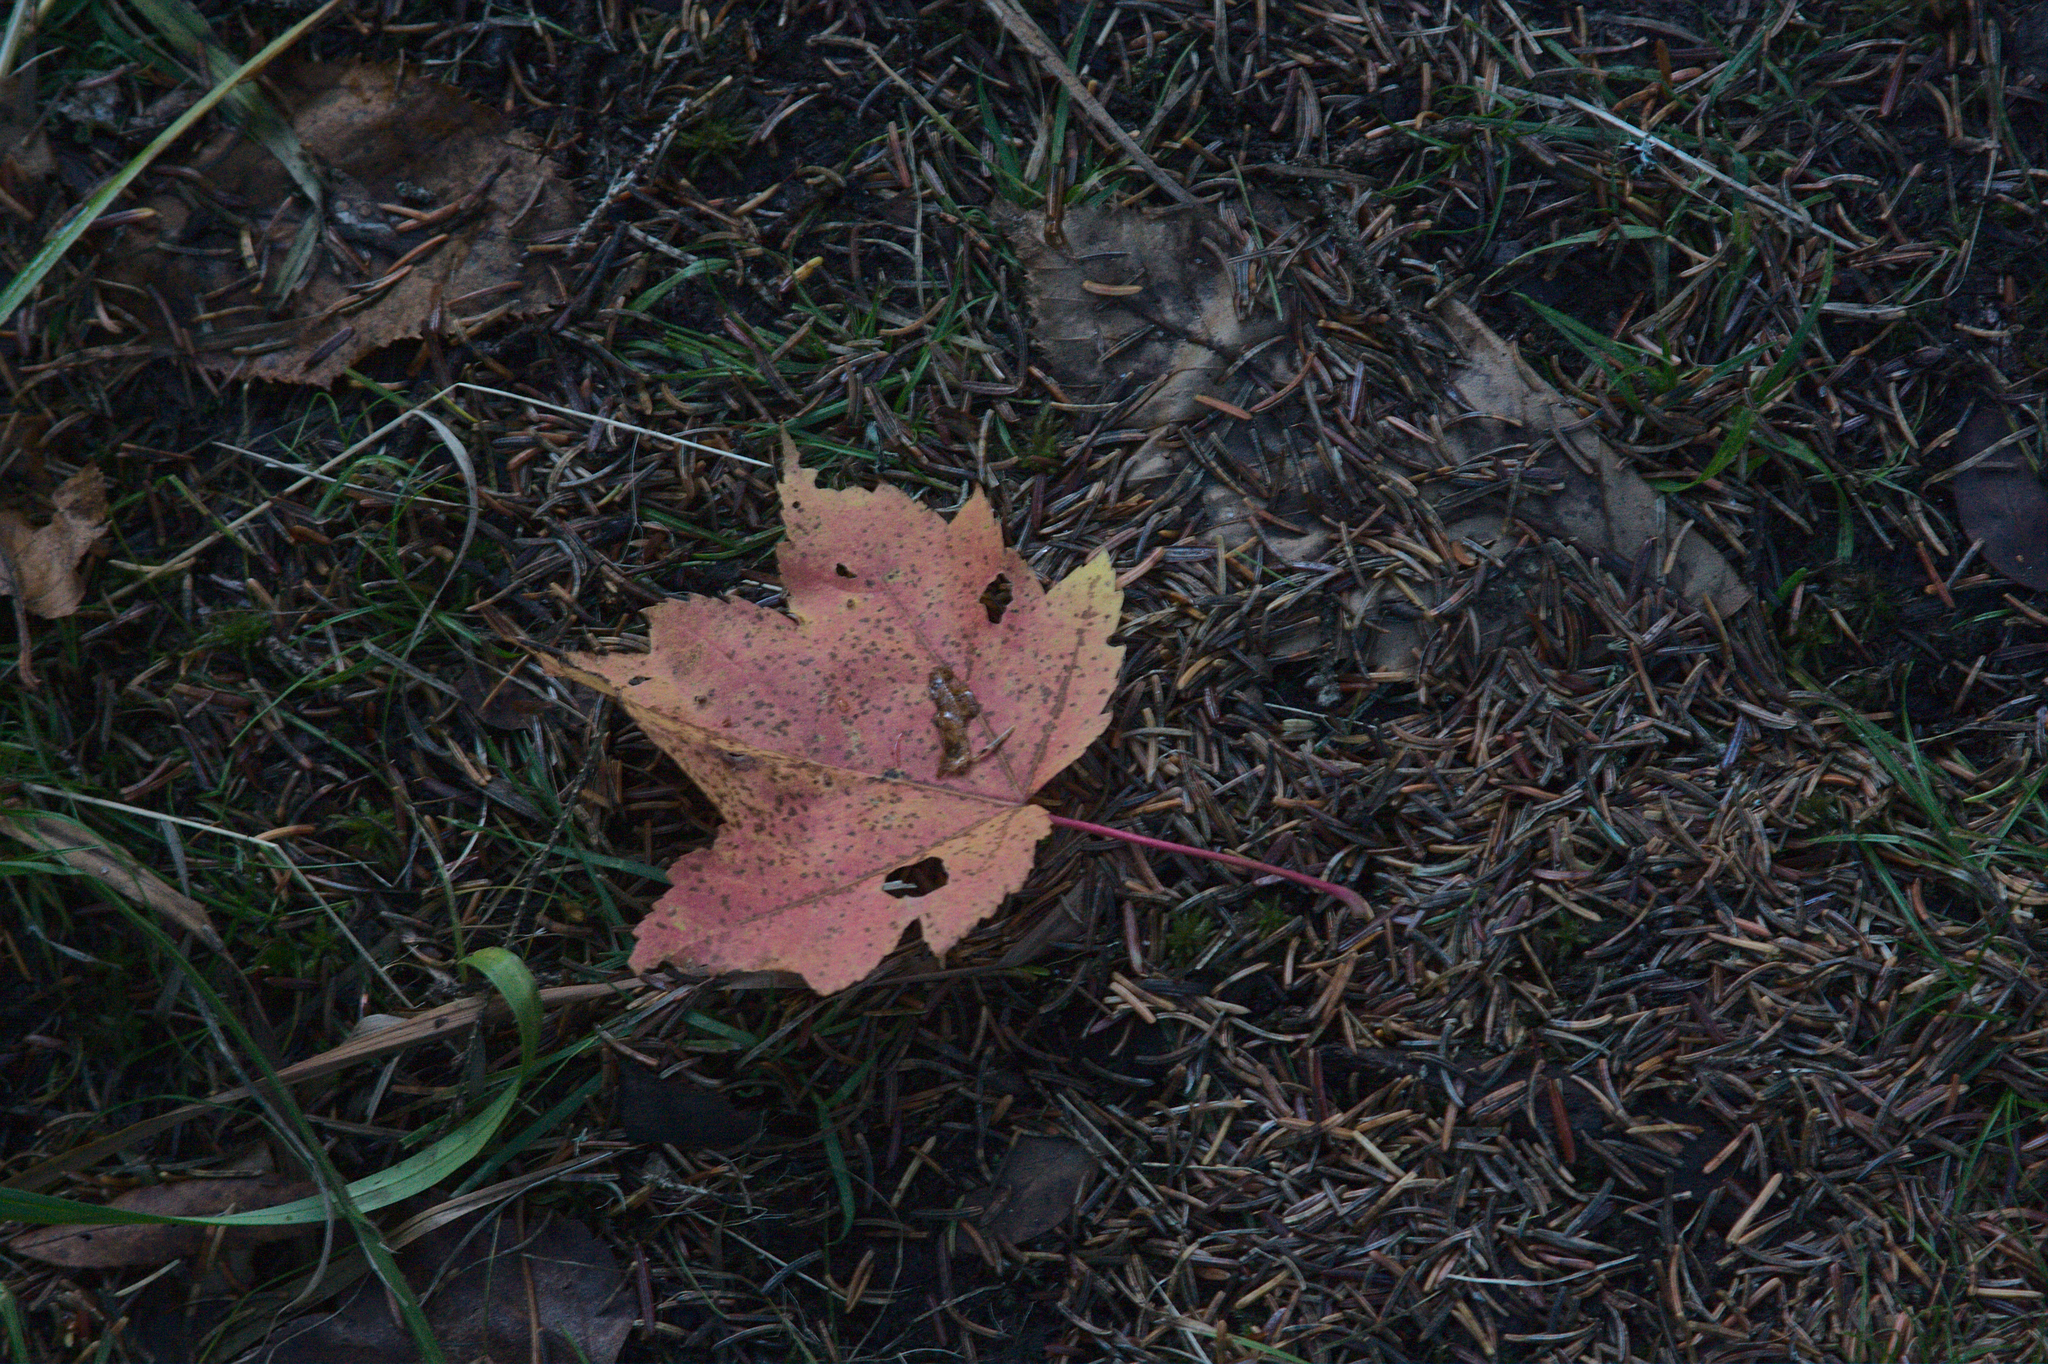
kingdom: Plantae
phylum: Tracheophyta
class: Magnoliopsida
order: Sapindales
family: Sapindaceae
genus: Acer
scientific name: Acer rubrum
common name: Red maple
